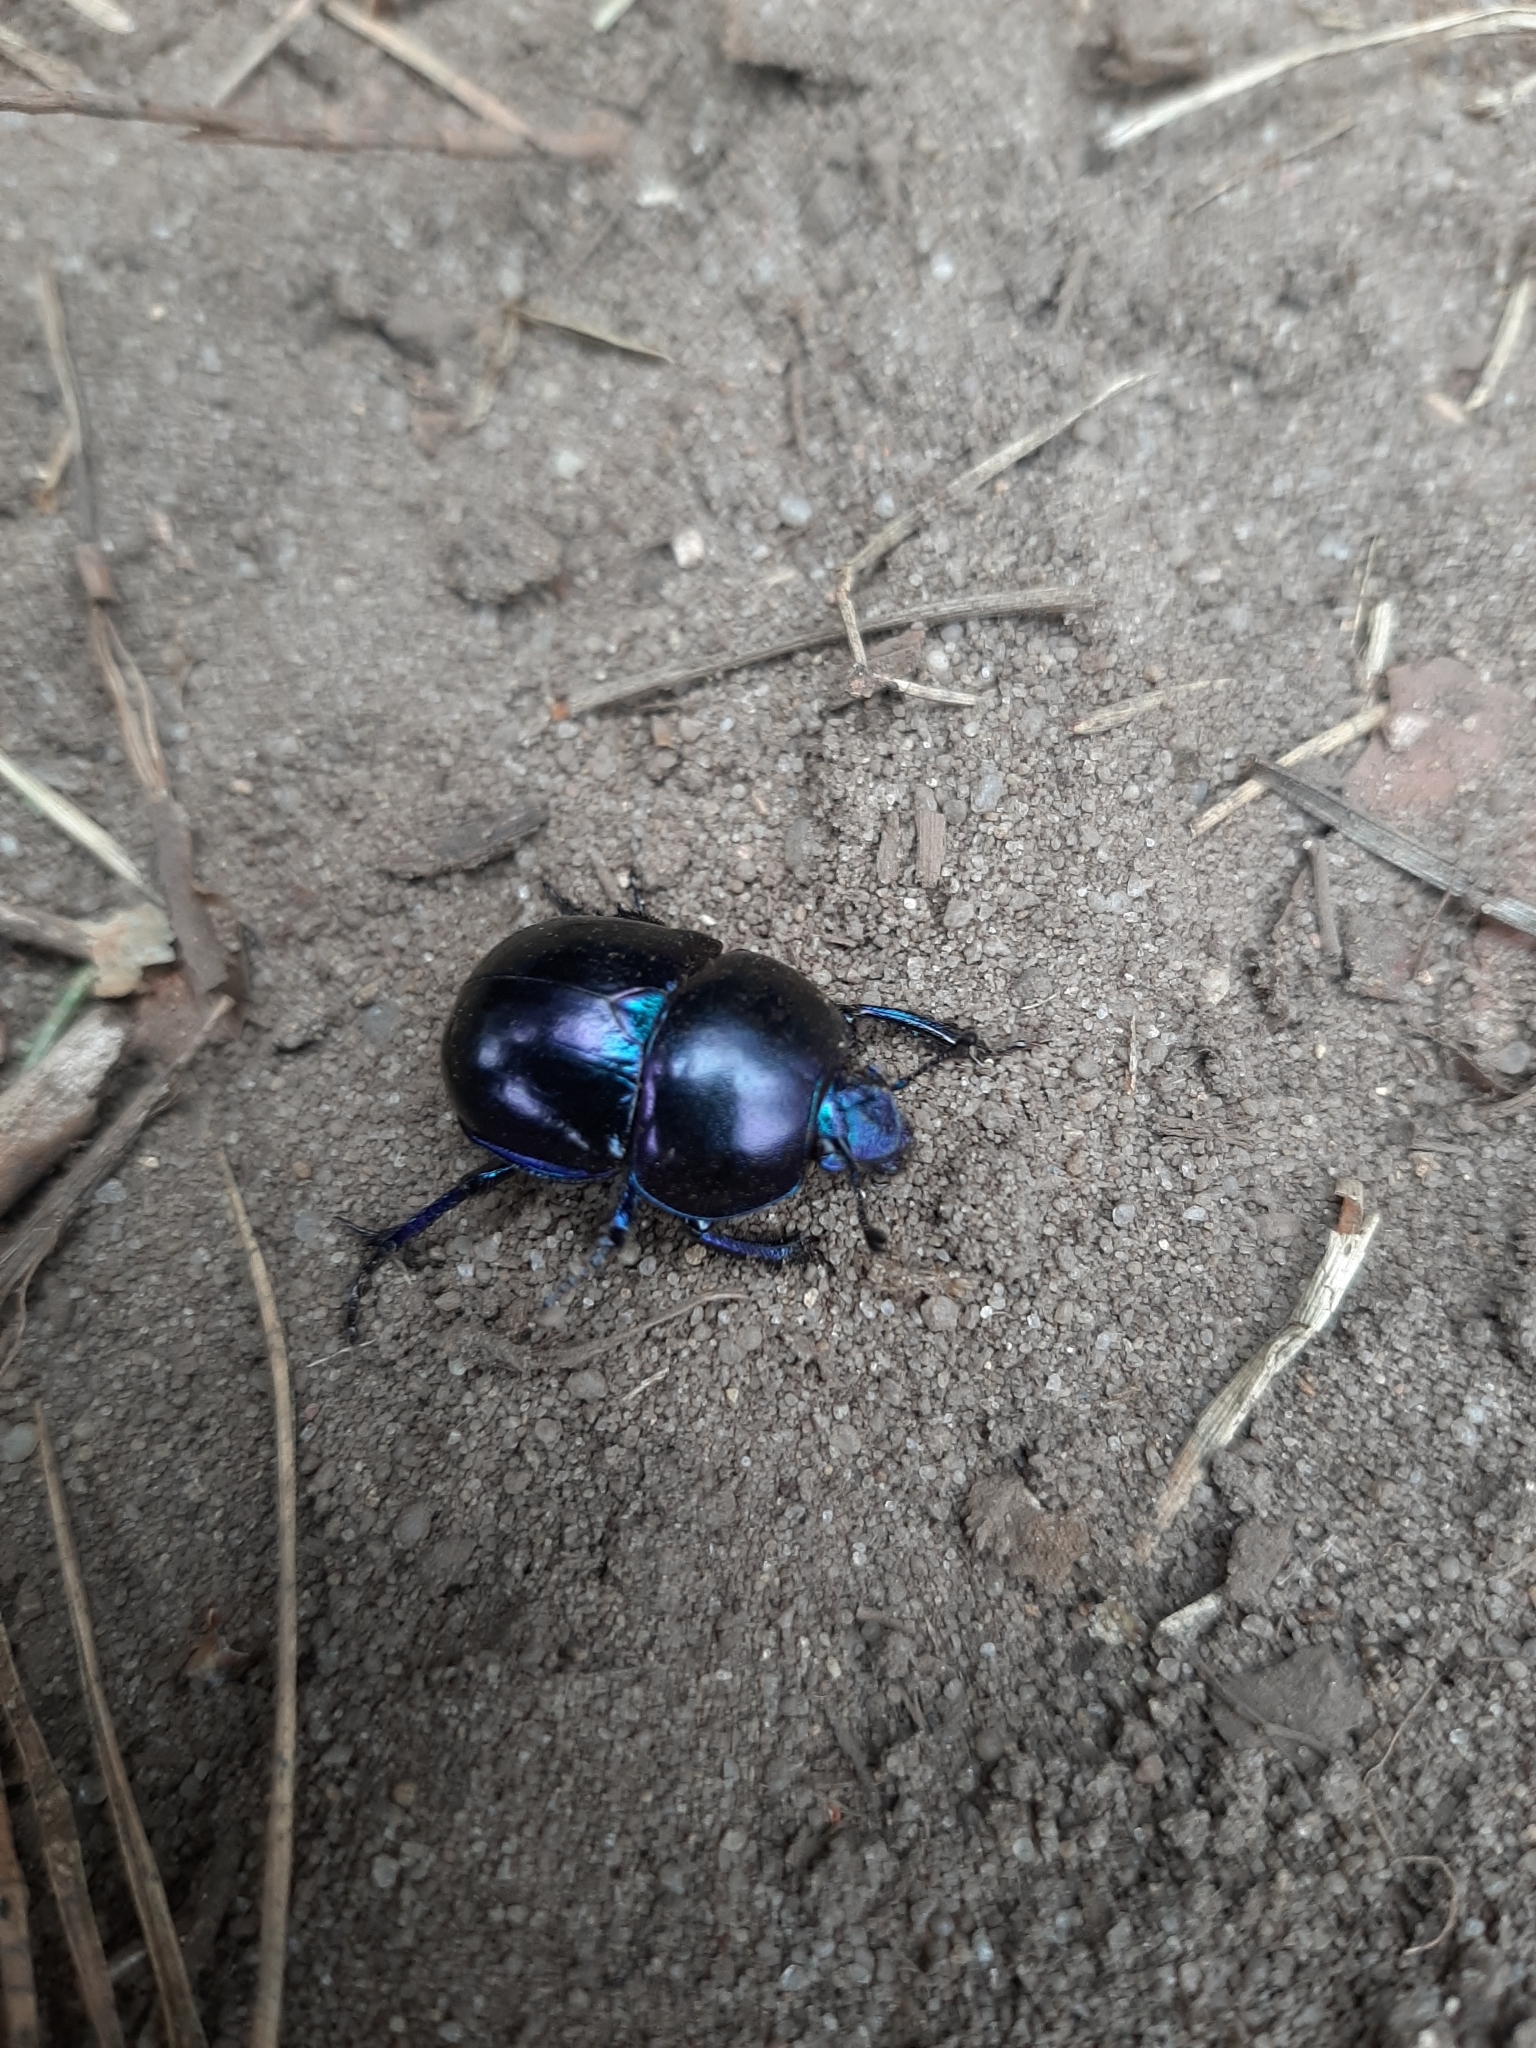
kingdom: Animalia
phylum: Arthropoda
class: Insecta
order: Coleoptera
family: Geotrupidae
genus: Trypocopris
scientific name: Trypocopris vernalis
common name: Spring dumbledor
